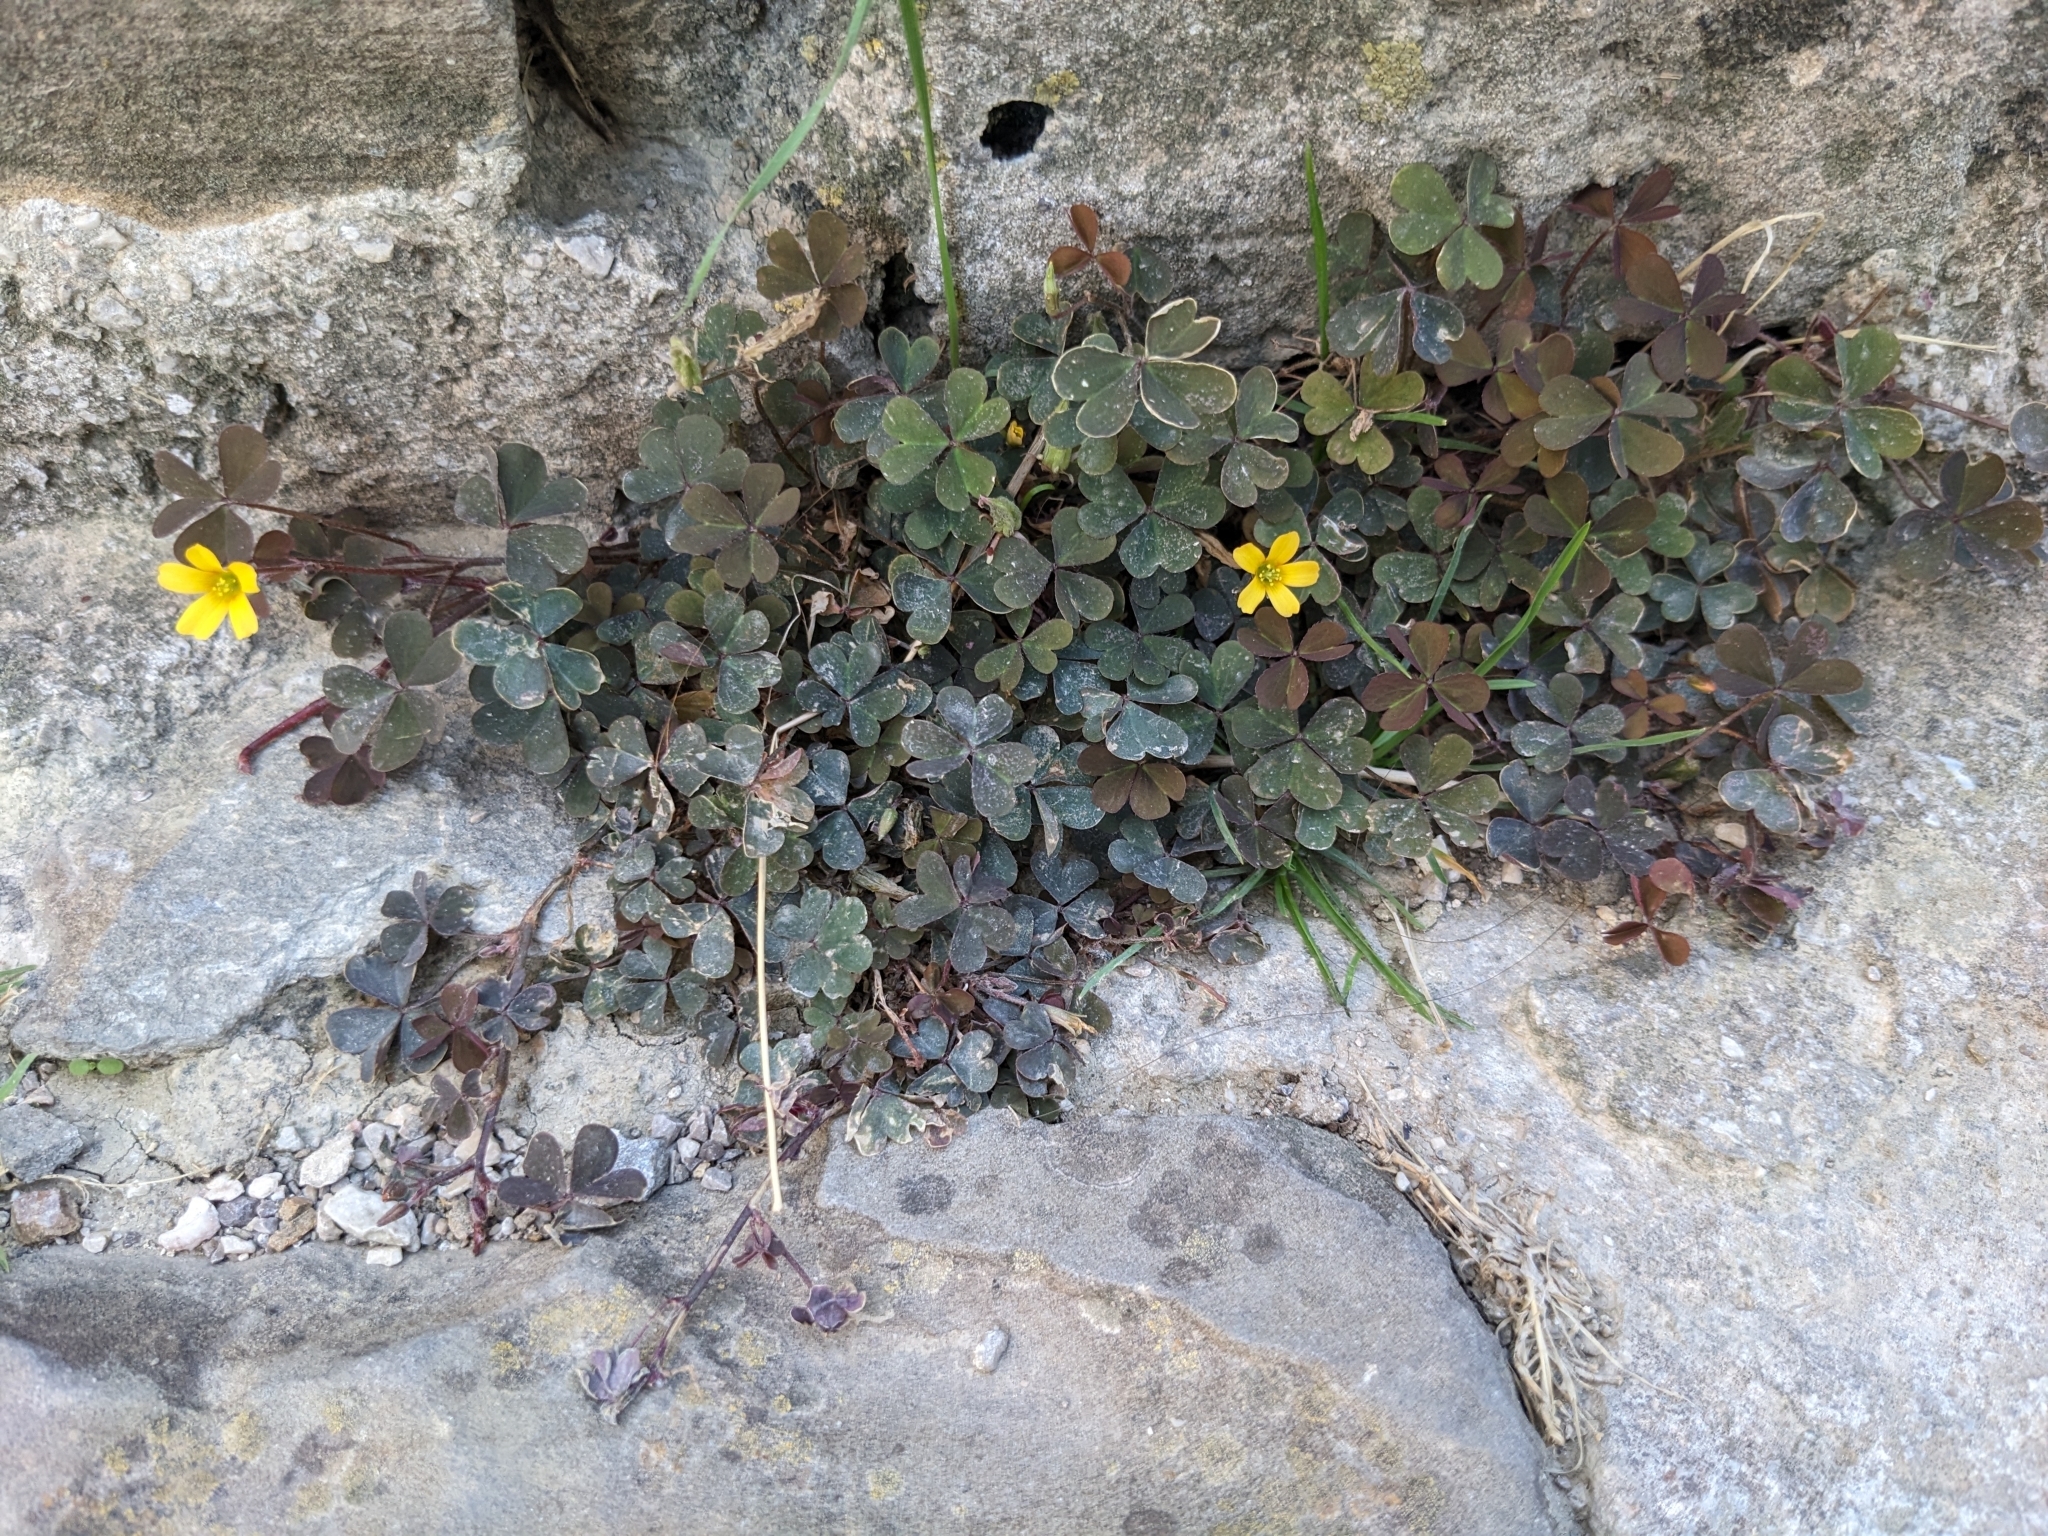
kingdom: Plantae
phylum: Tracheophyta
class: Magnoliopsida
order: Oxalidales
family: Oxalidaceae
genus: Oxalis
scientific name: Oxalis corniculata
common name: Procumbent yellow-sorrel
